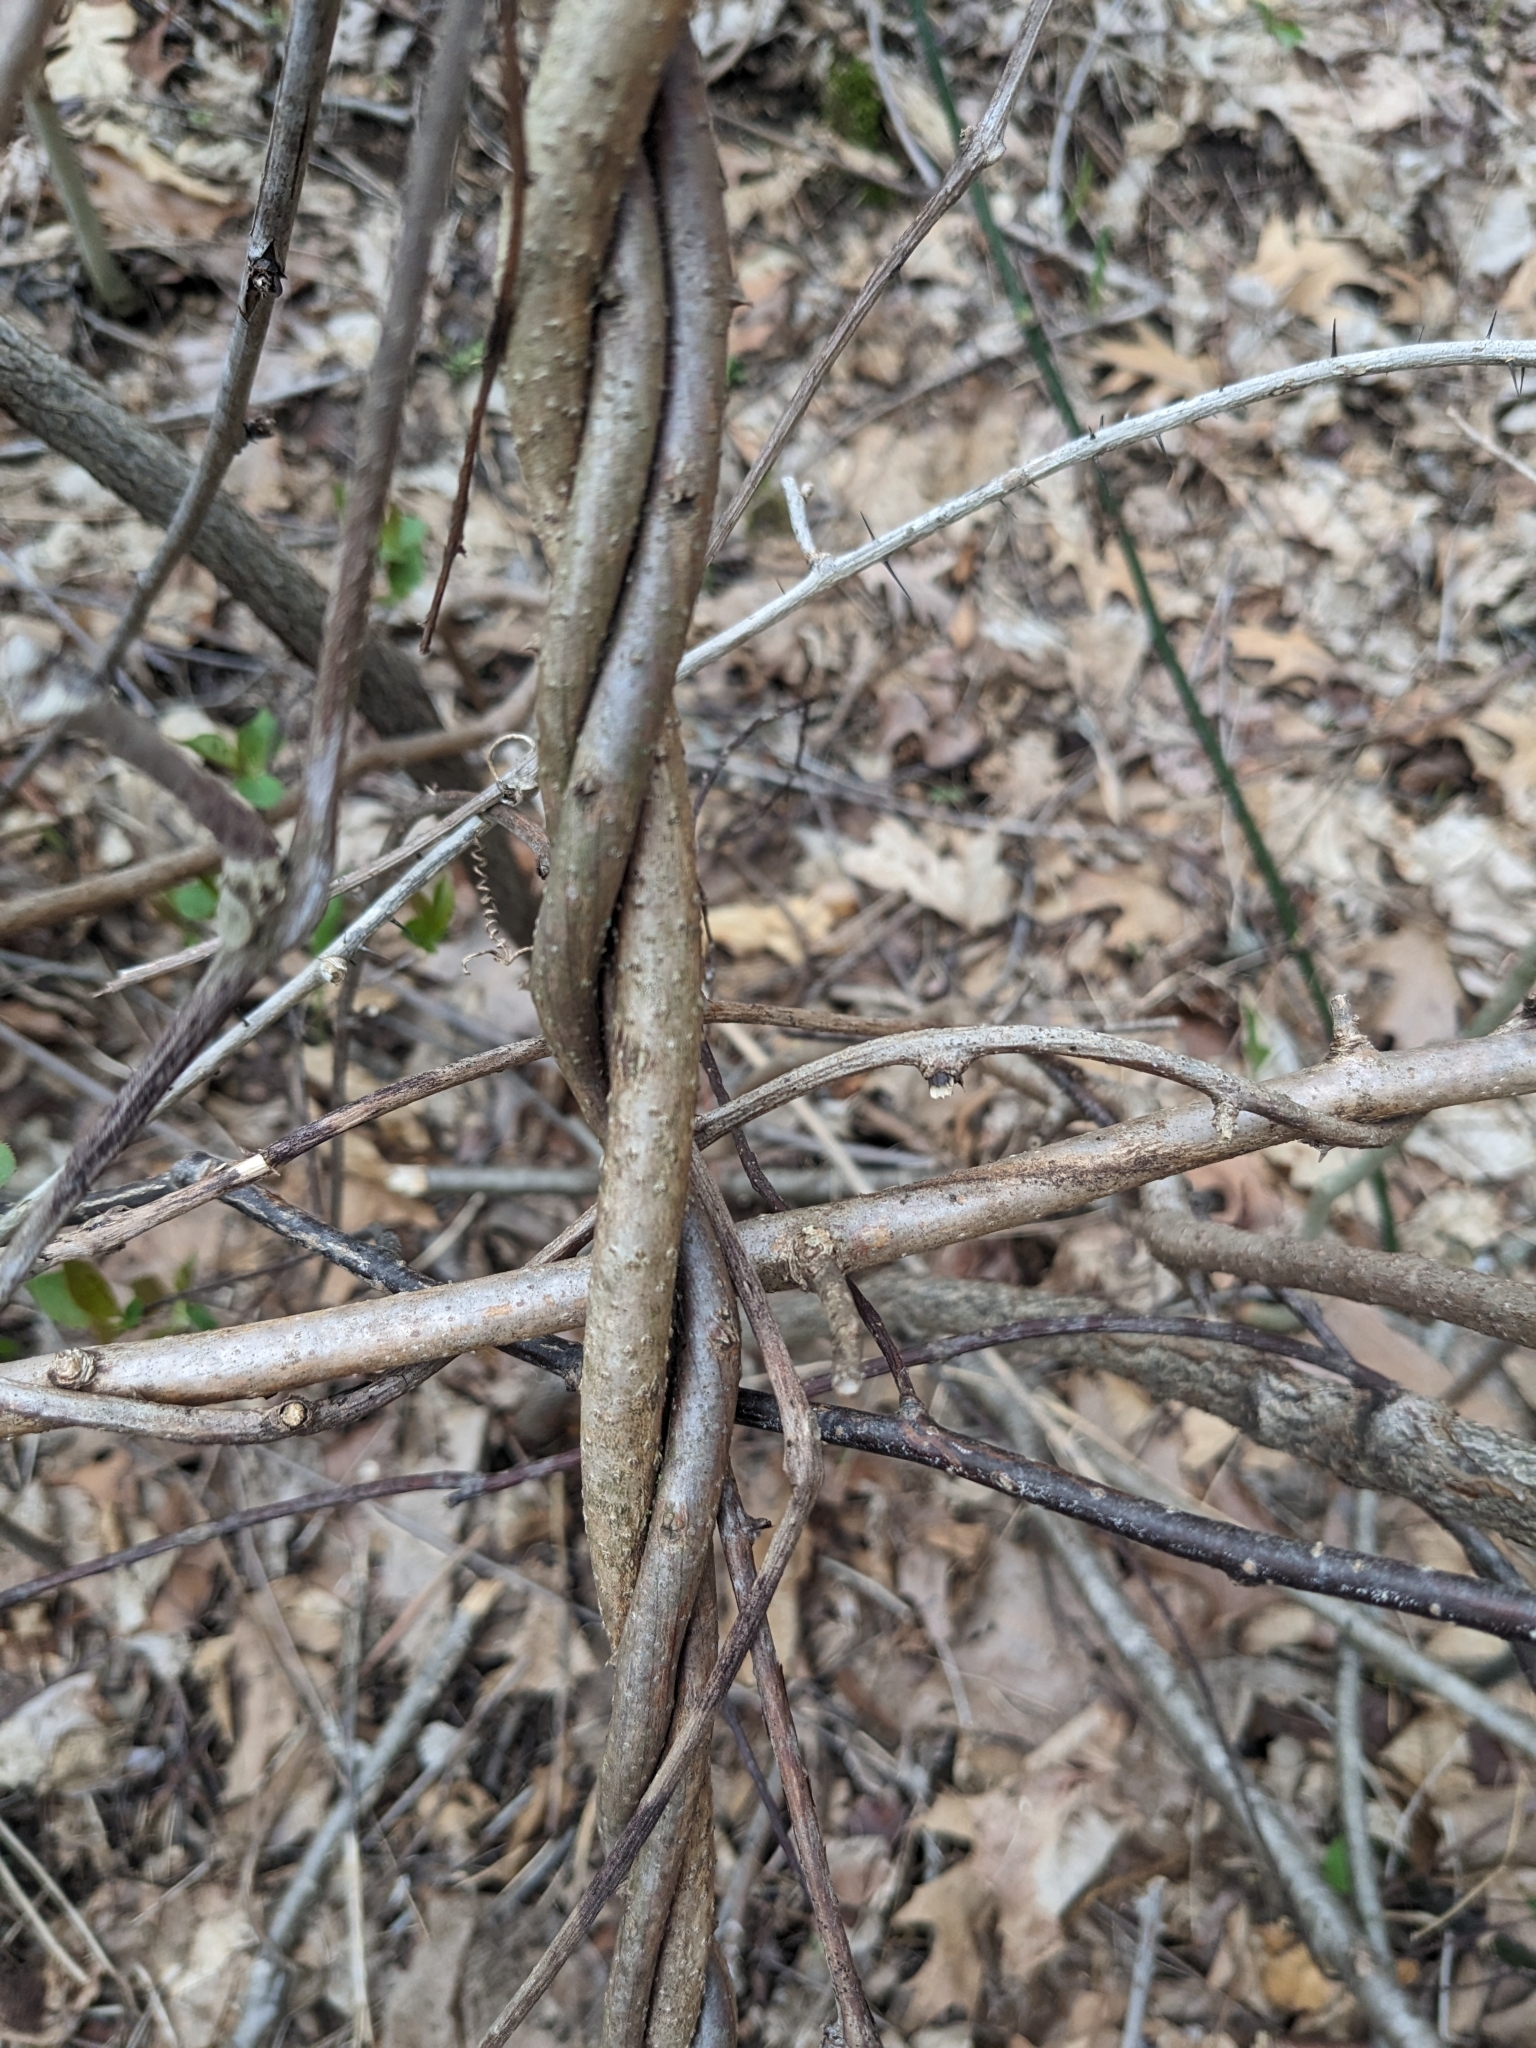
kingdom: Plantae
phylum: Tracheophyta
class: Magnoliopsida
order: Celastrales
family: Celastraceae
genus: Celastrus
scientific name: Celastrus orbiculatus
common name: Oriental bittersweet
